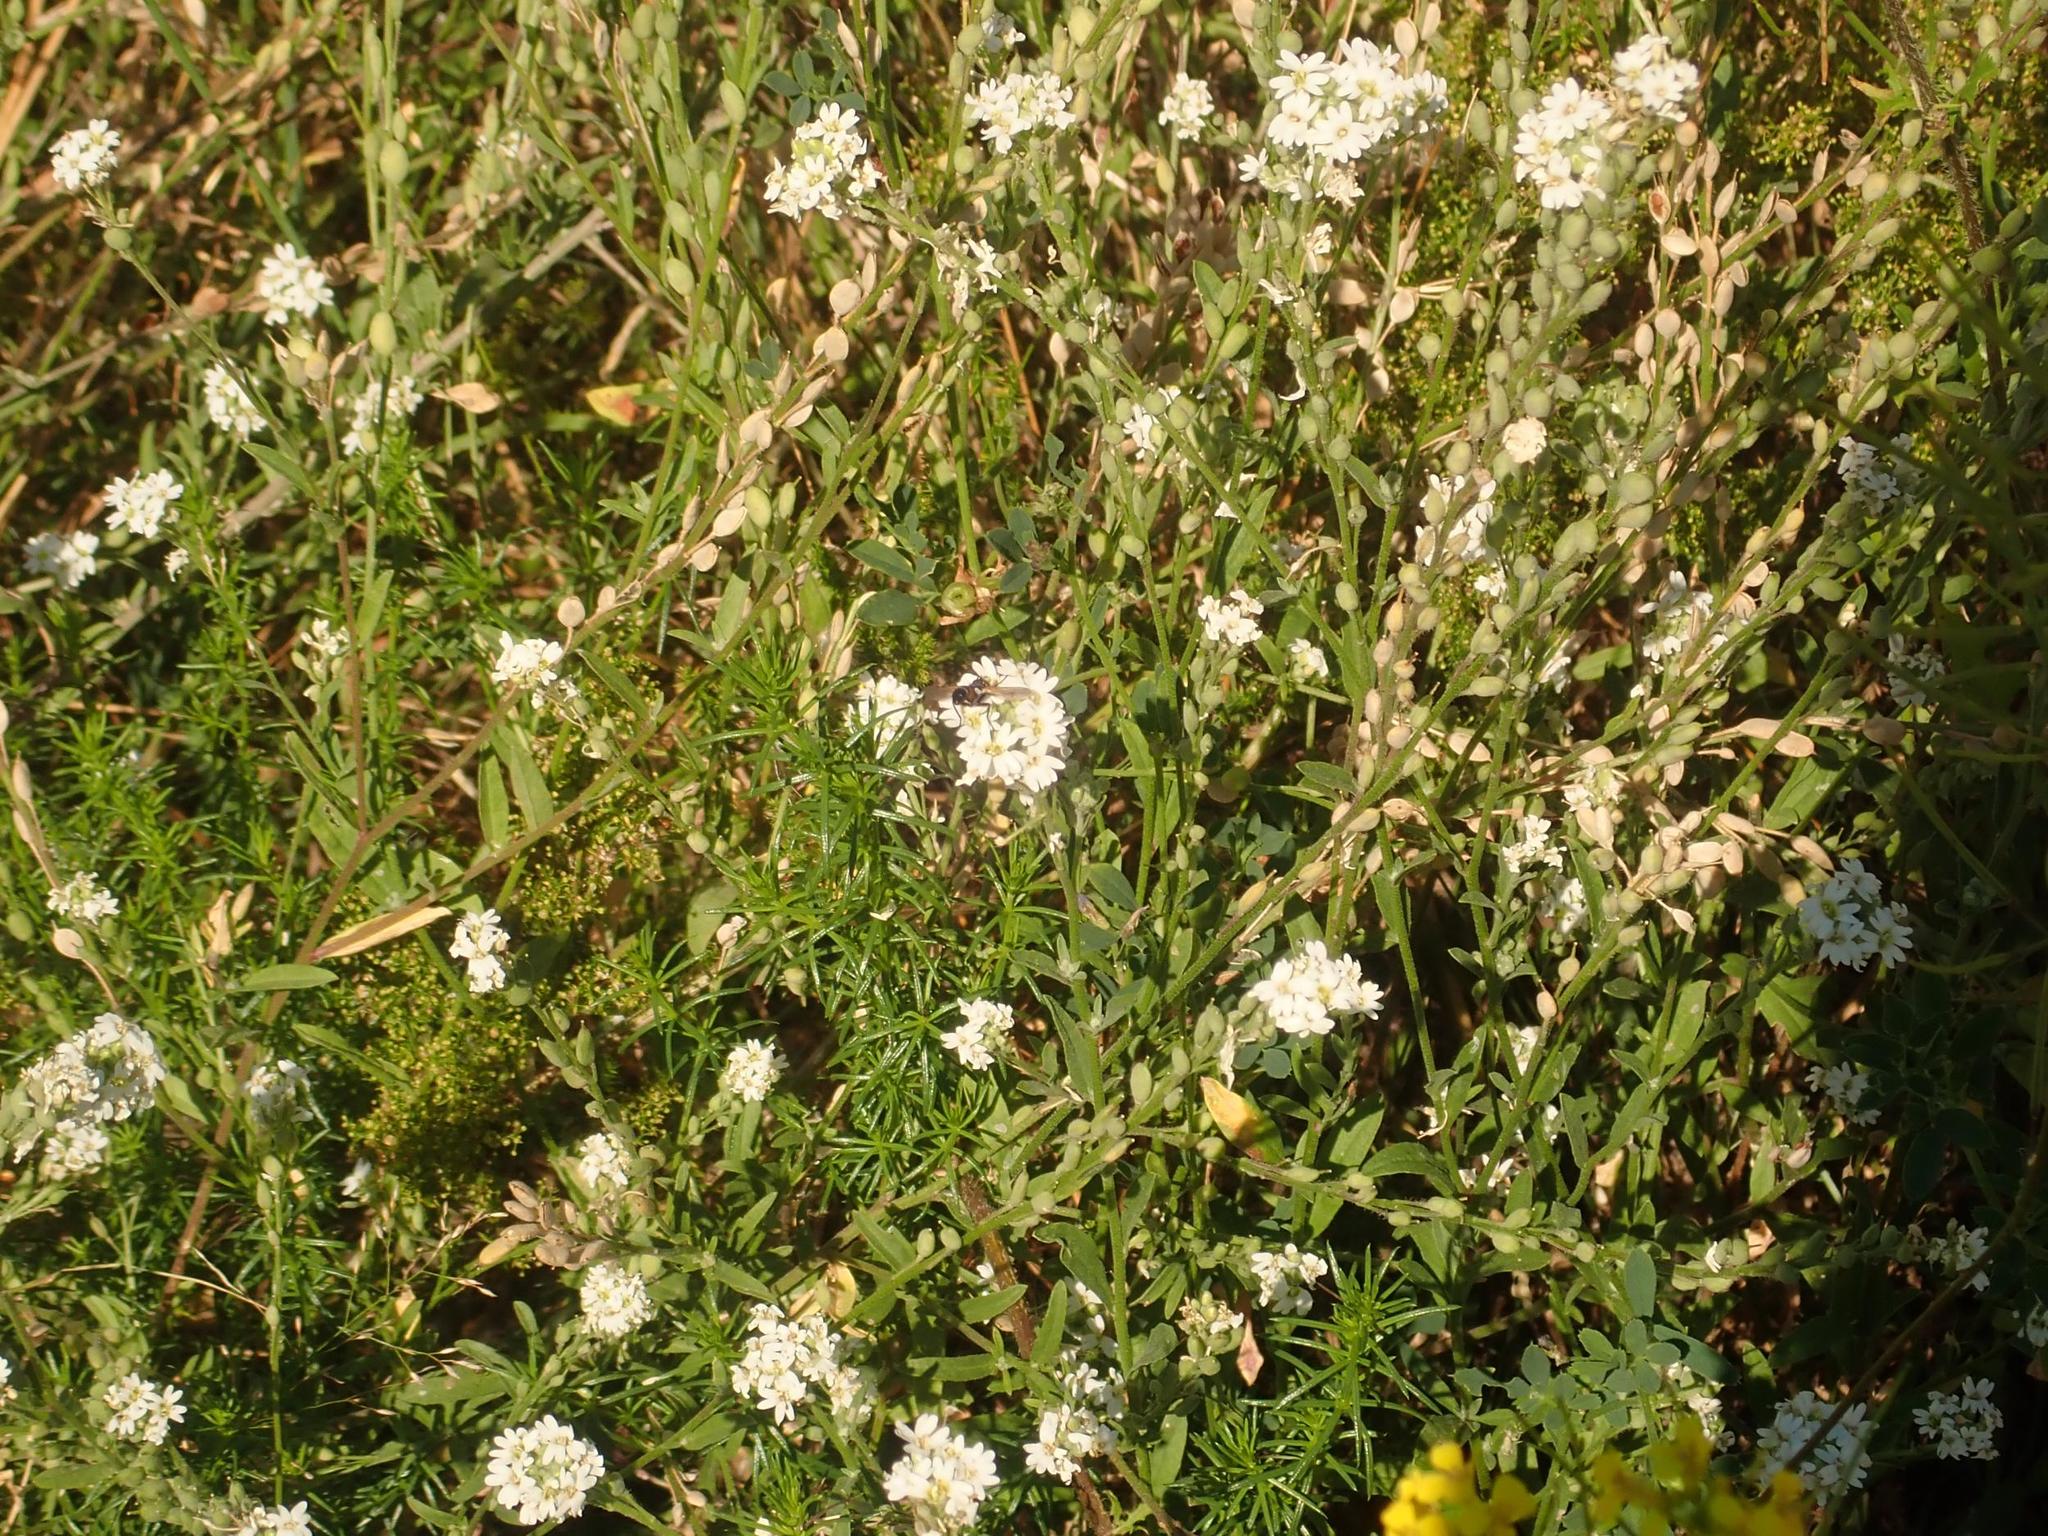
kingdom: Plantae
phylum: Tracheophyta
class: Magnoliopsida
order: Brassicales
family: Brassicaceae
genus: Berteroa
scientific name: Berteroa incana
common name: Hoary alison
